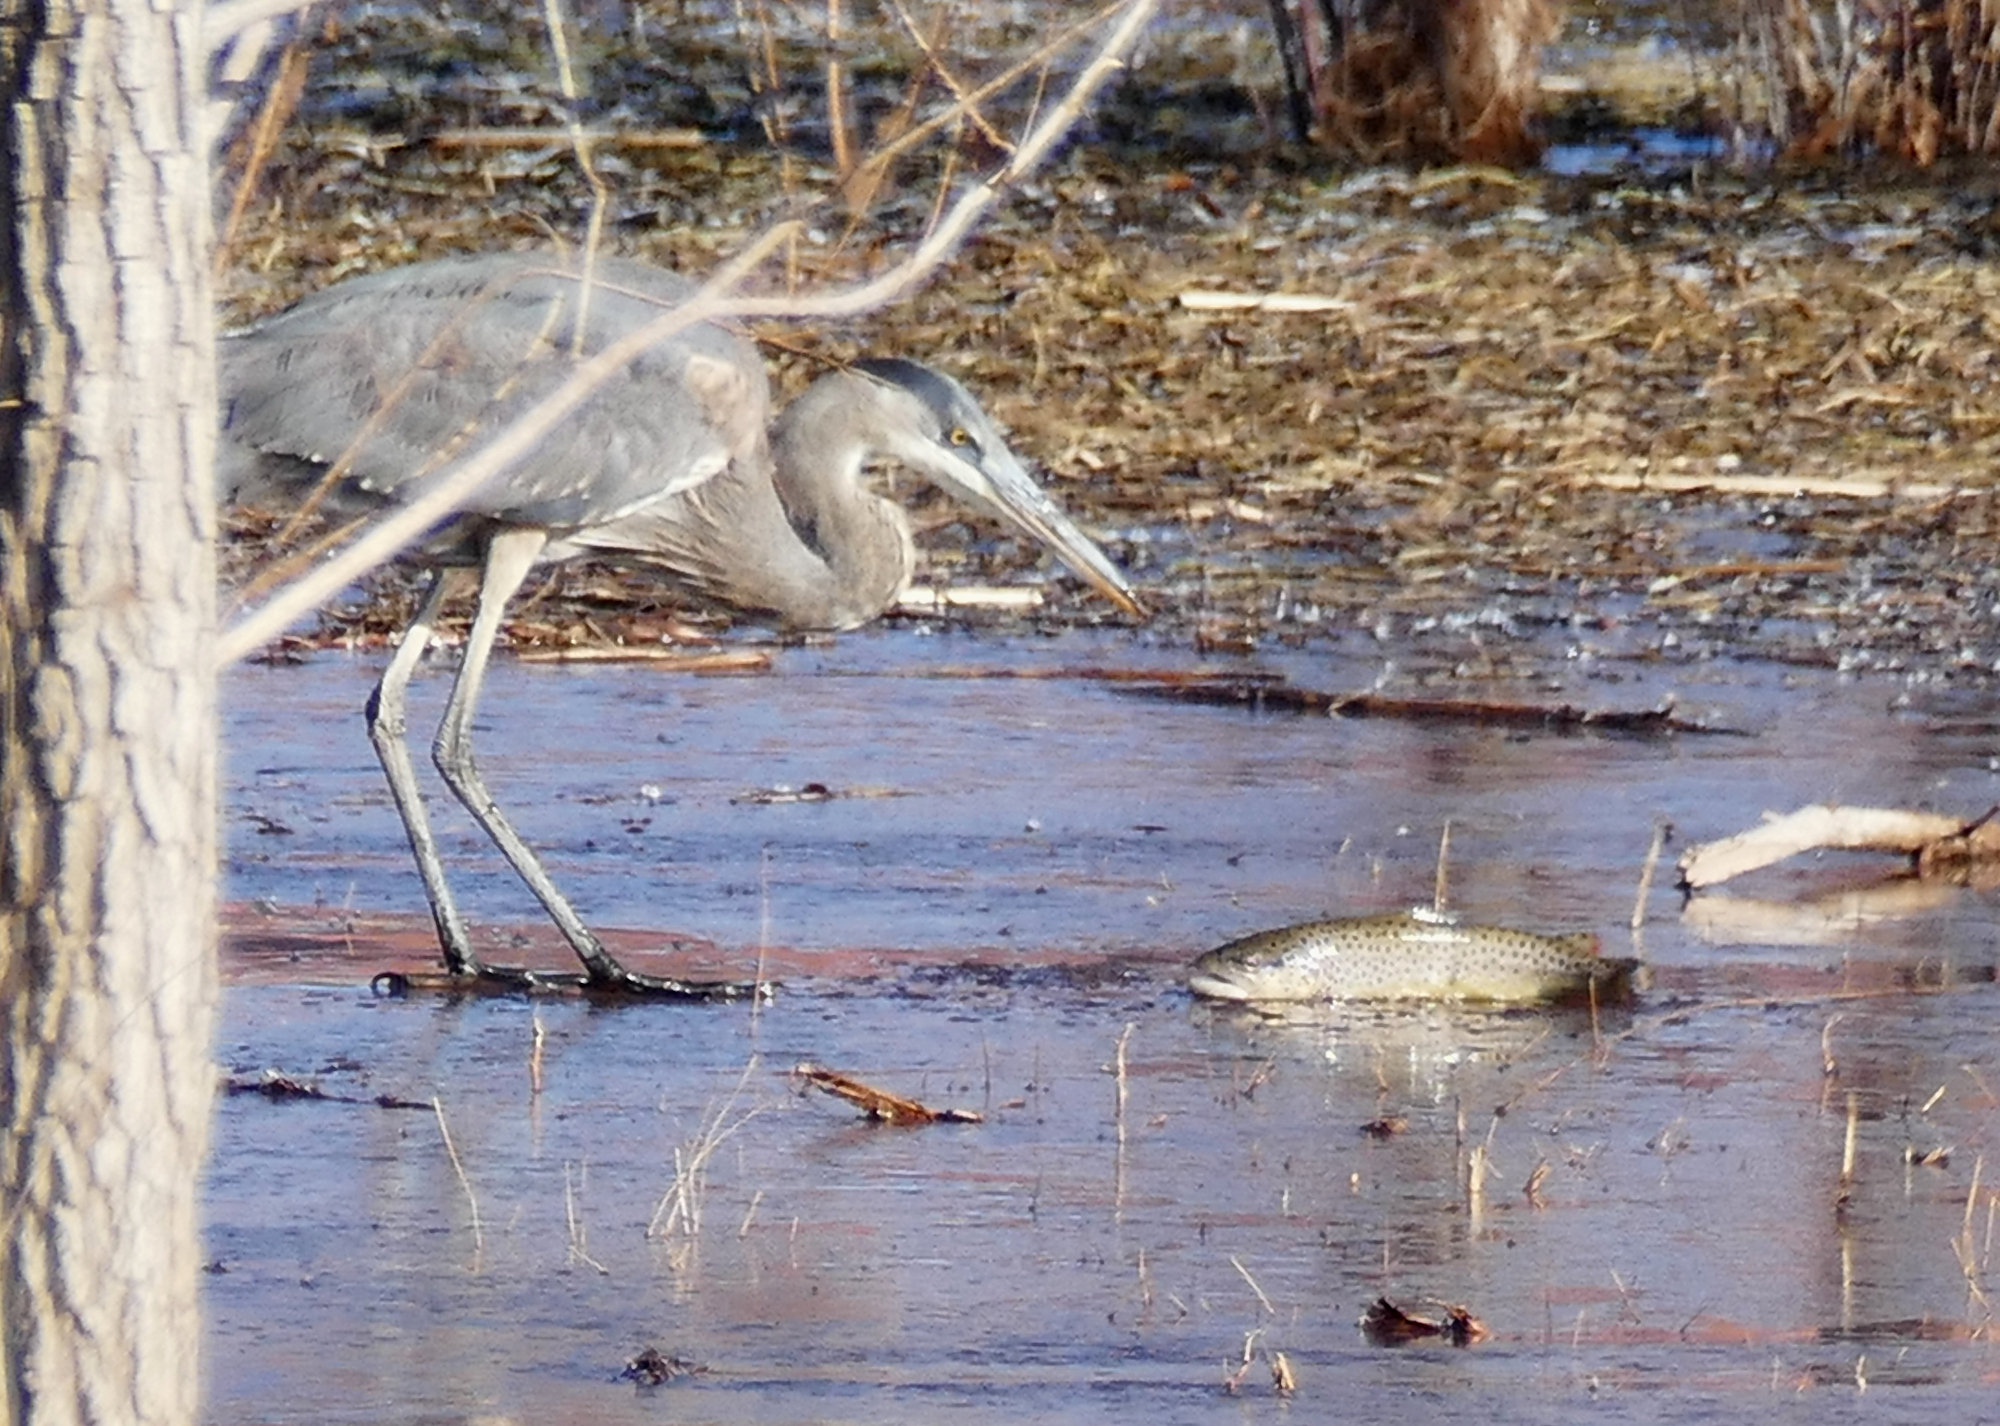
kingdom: Animalia
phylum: Chordata
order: Salmoniformes
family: Salmonidae
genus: Salmo
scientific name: Salmo trutta
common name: Brown trout
